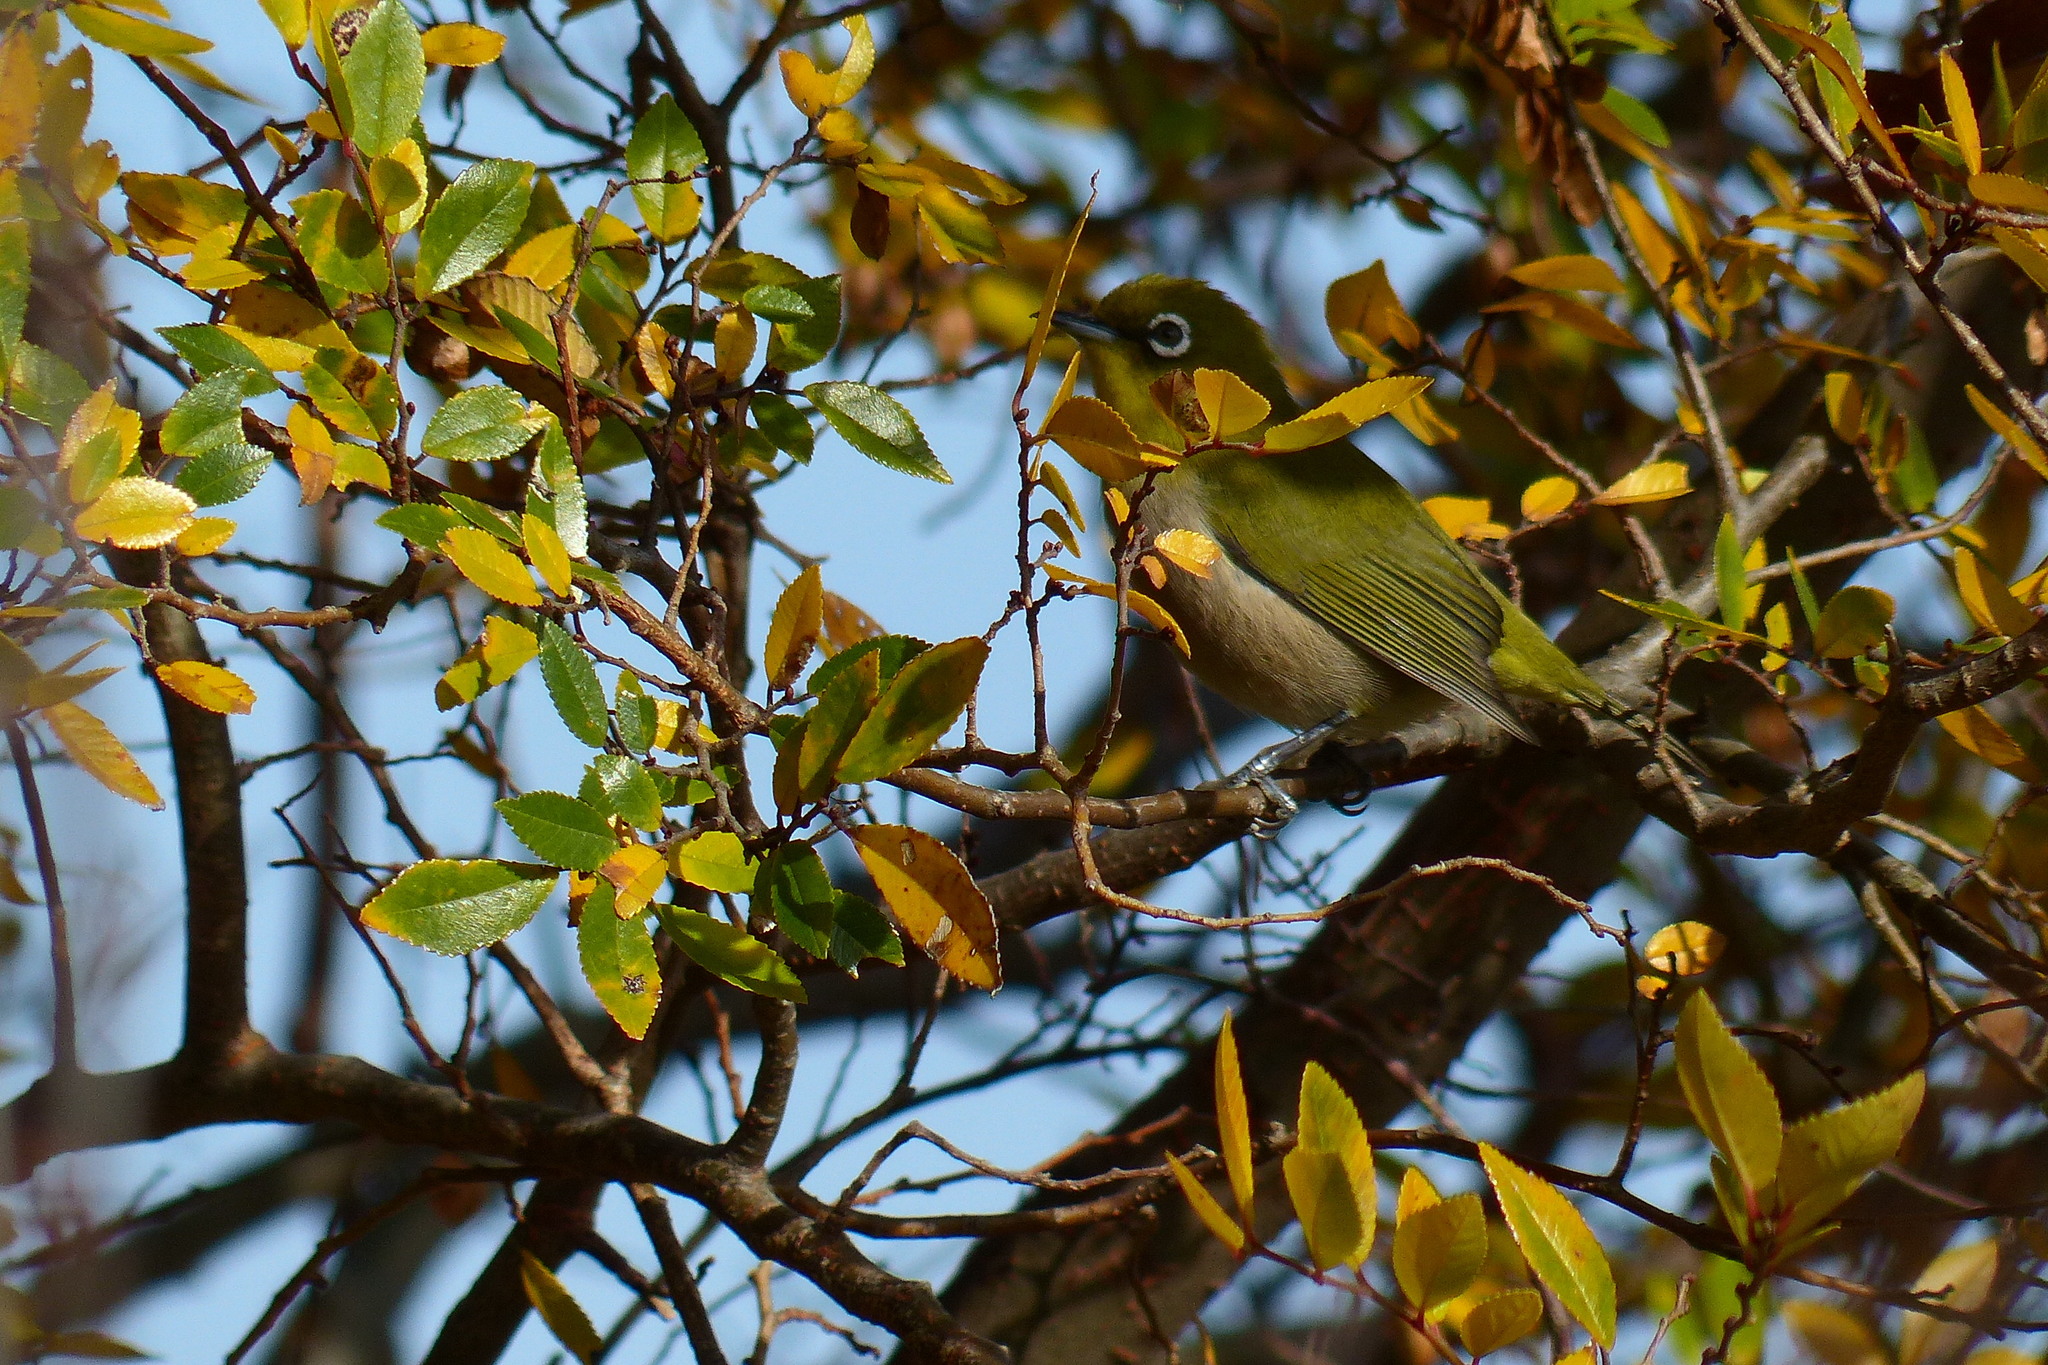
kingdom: Animalia
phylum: Chordata
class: Aves
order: Passeriformes
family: Zosteropidae
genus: Zosterops
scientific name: Zosterops japonicus
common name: Japanese white-eye
